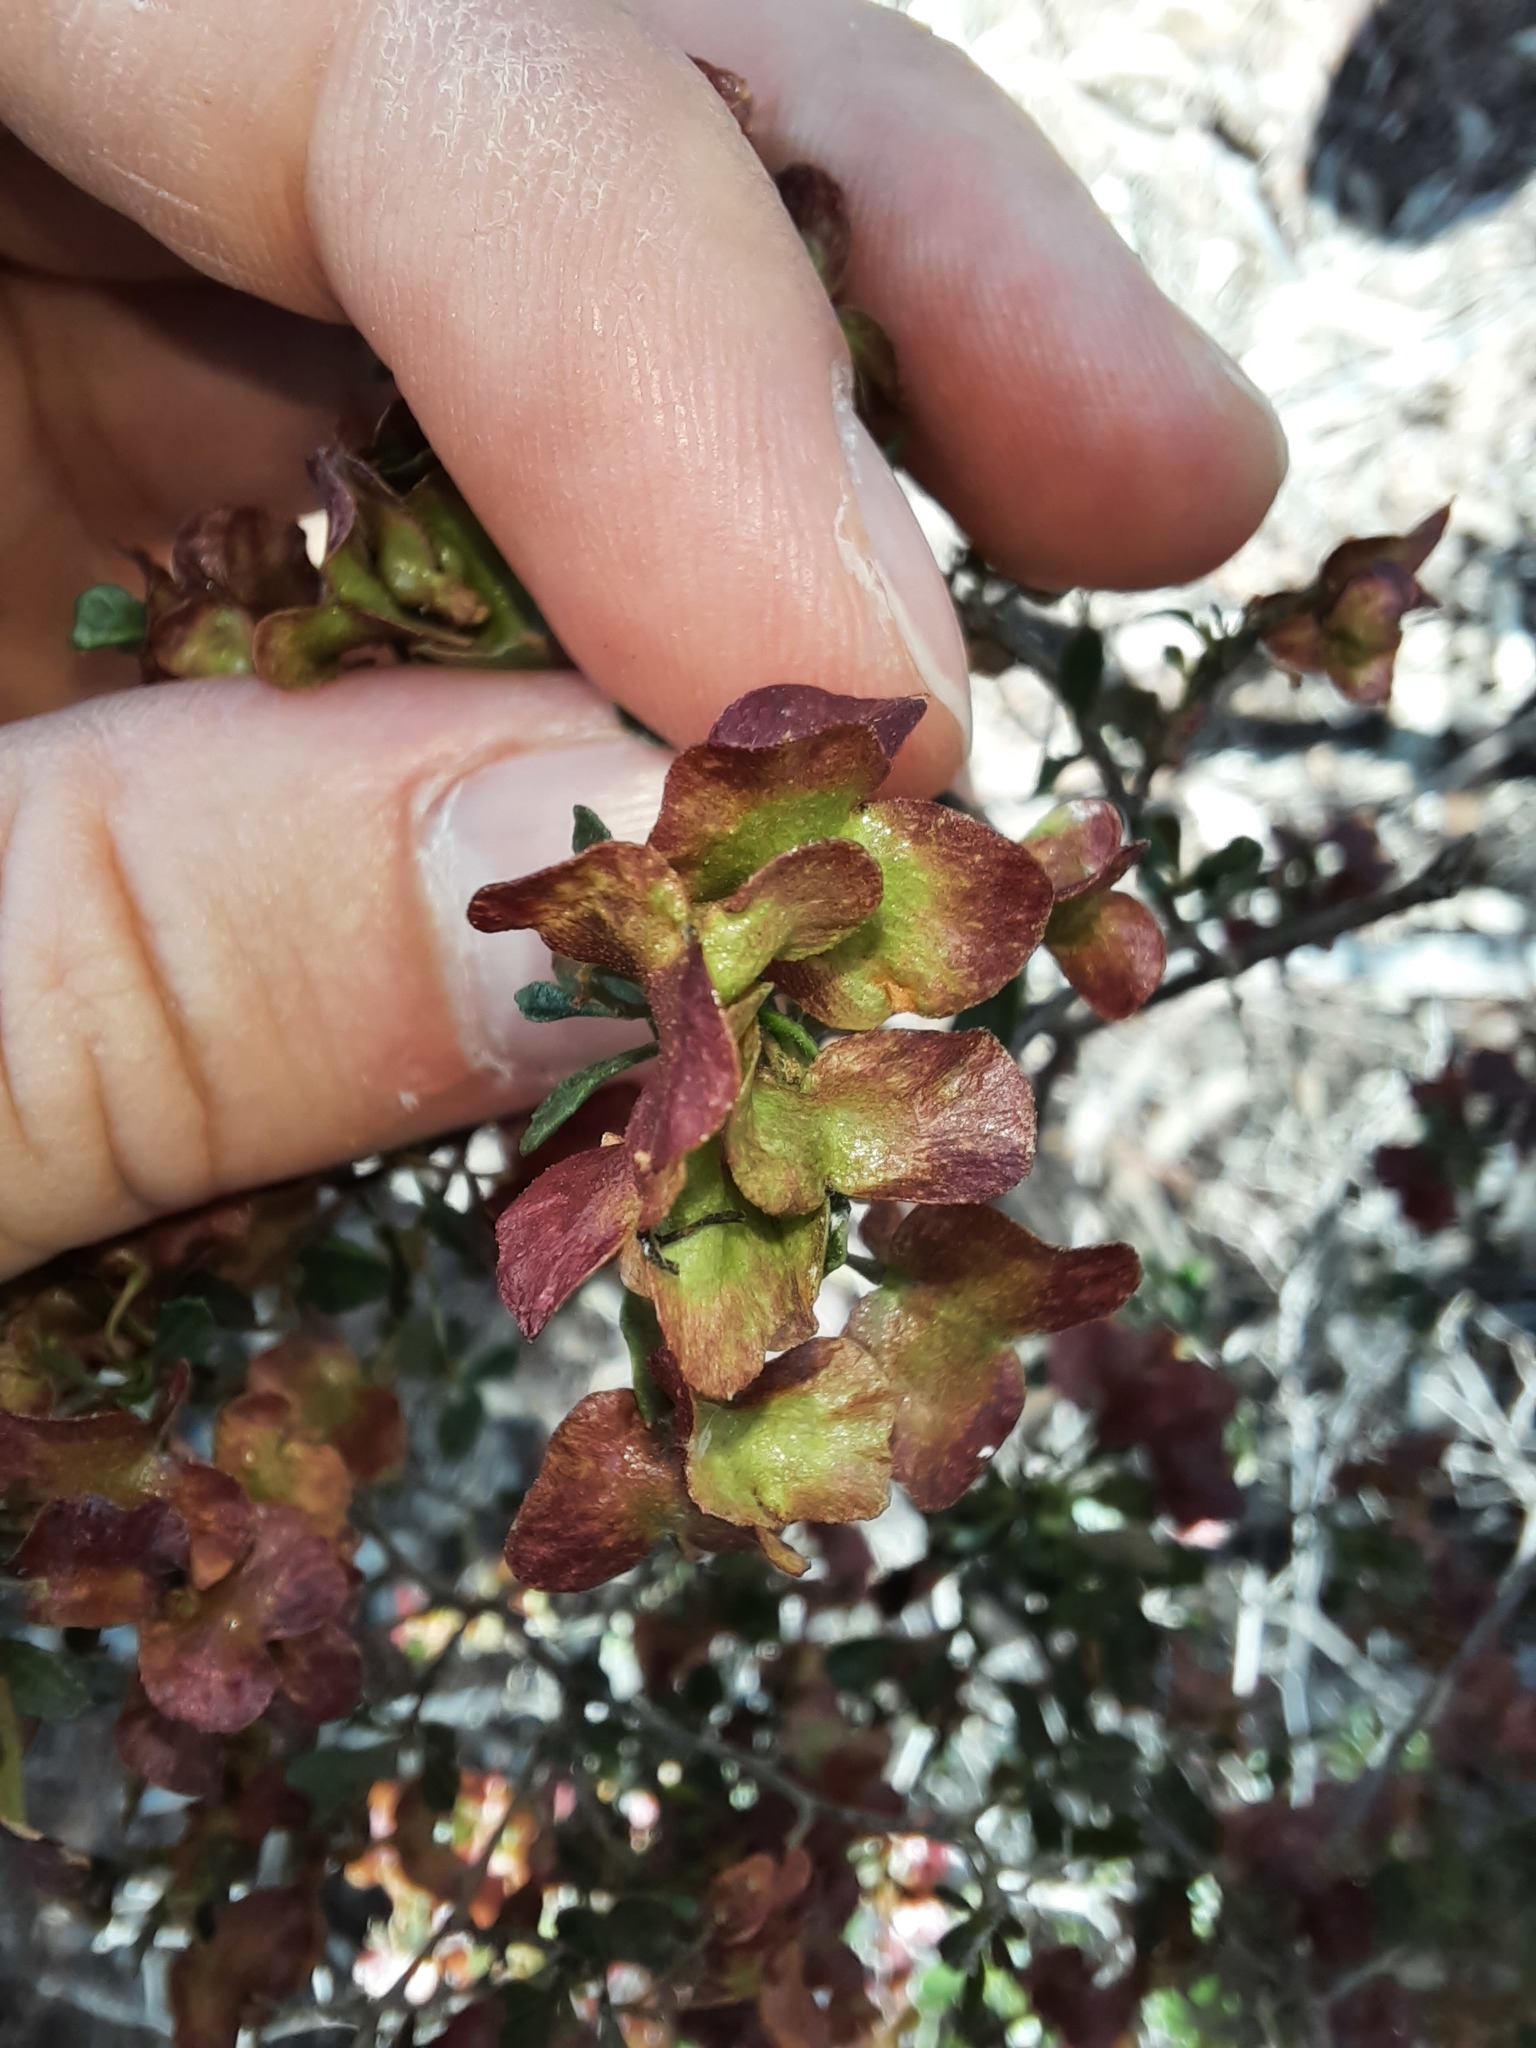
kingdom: Plantae
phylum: Tracheophyta
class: Magnoliopsida
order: Sapindales
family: Sapindaceae
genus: Dodonaea
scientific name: Dodonaea viscosa
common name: Hopbush
